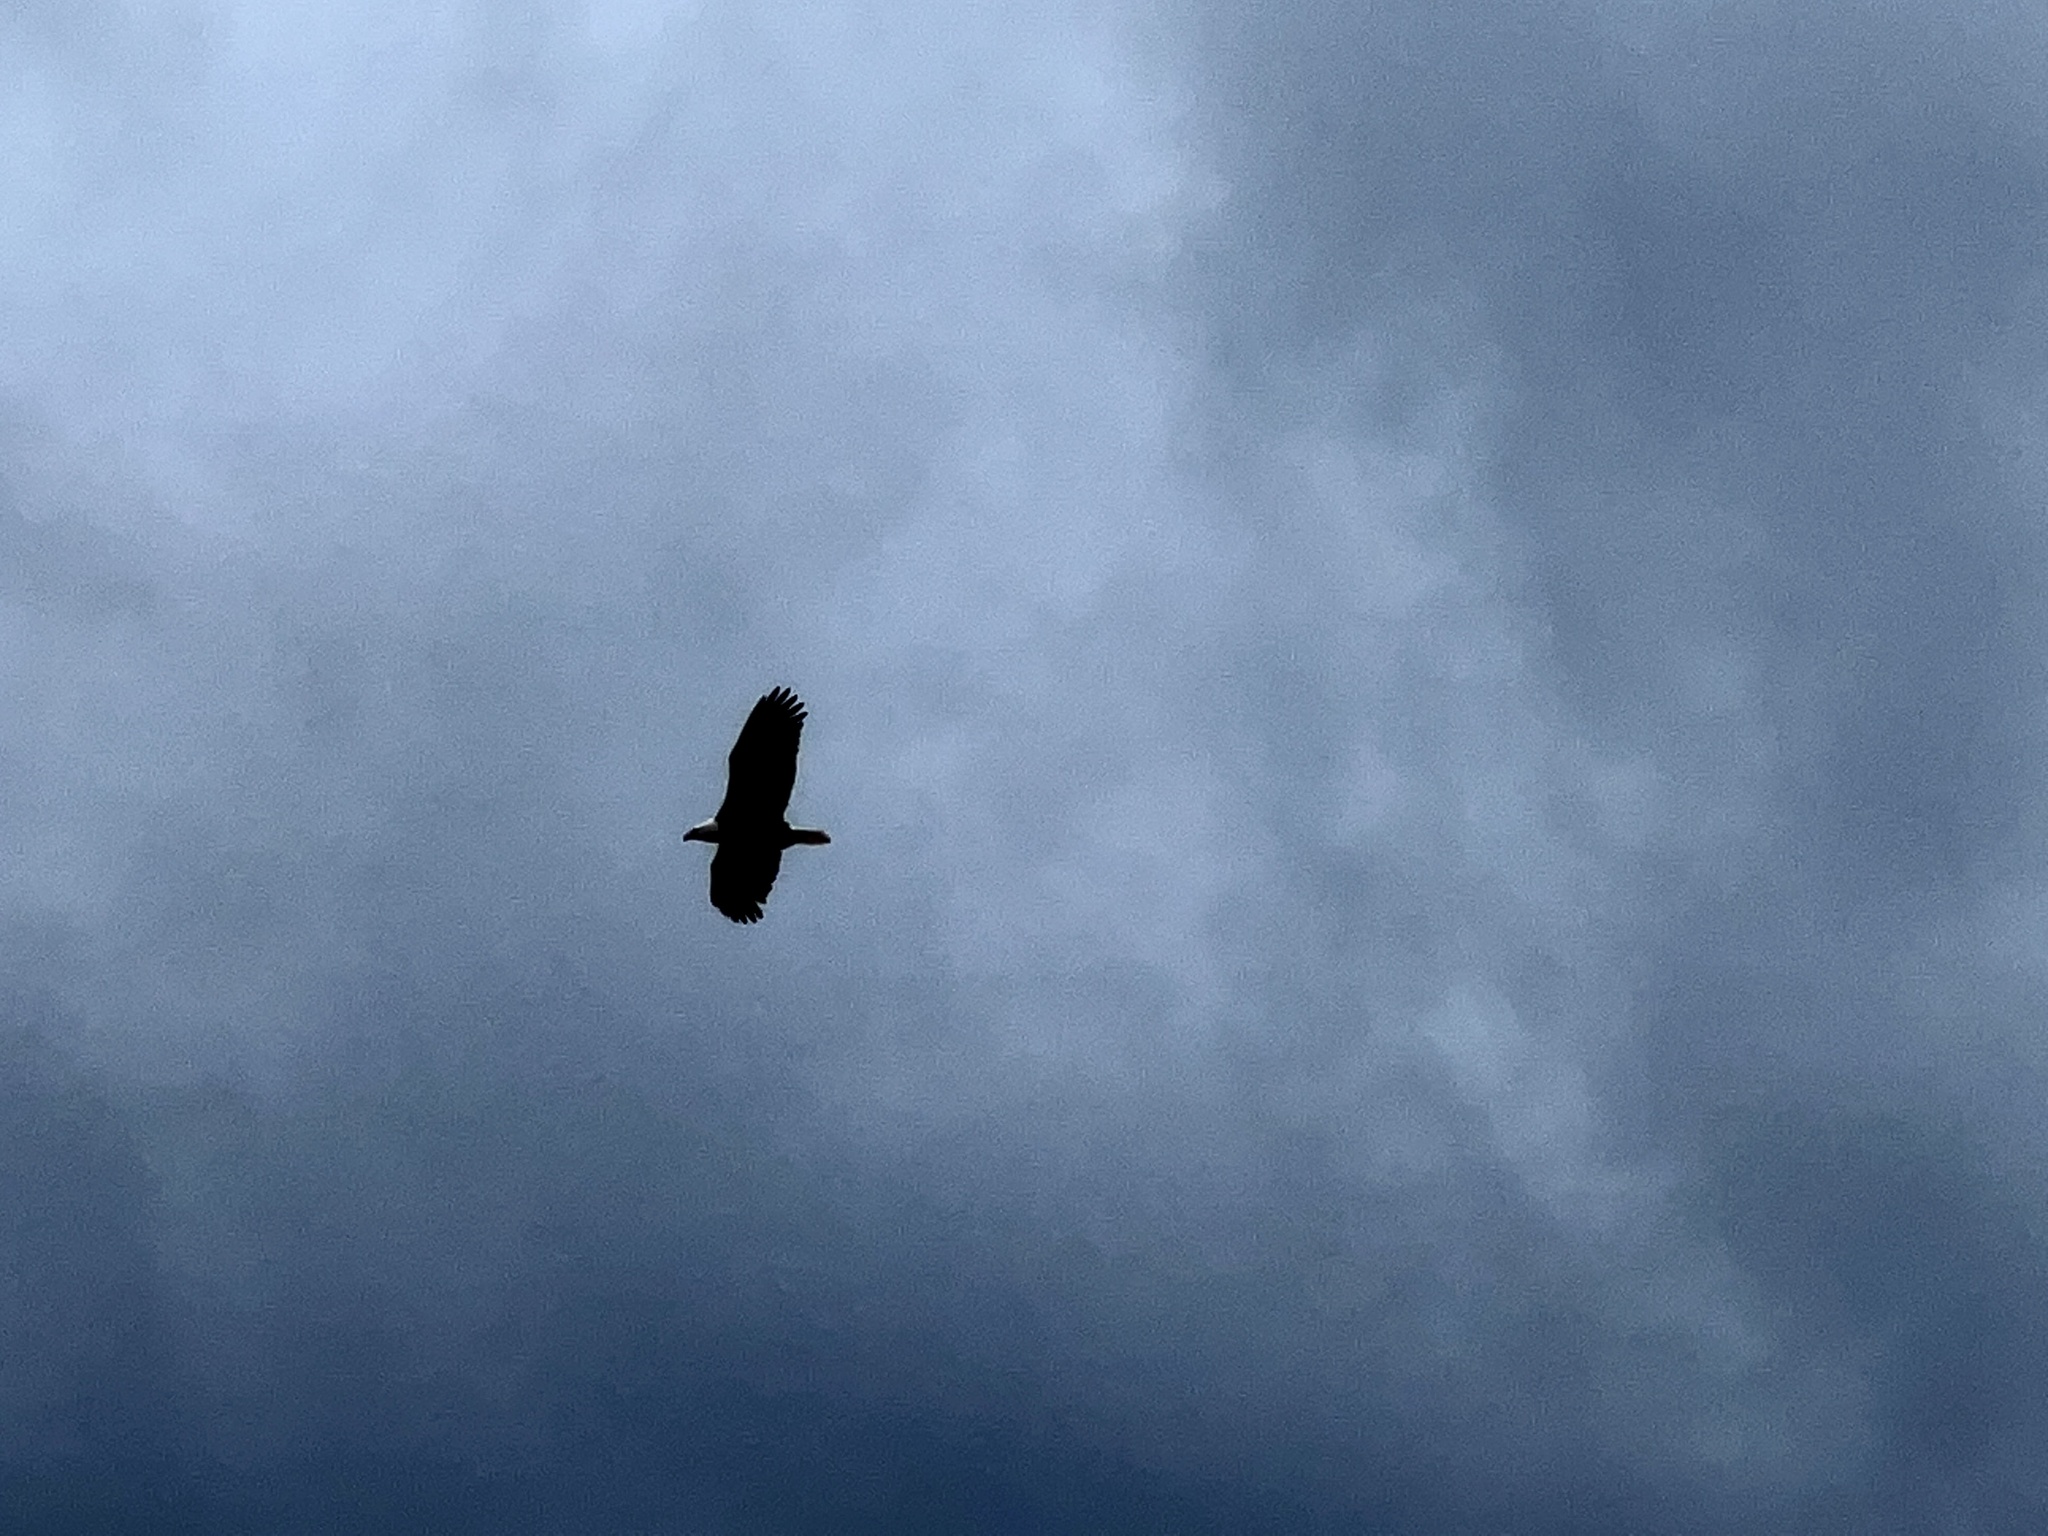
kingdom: Animalia
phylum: Chordata
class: Aves
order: Accipitriformes
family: Accipitridae
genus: Haliaeetus
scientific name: Haliaeetus leucocephalus
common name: Bald eagle
